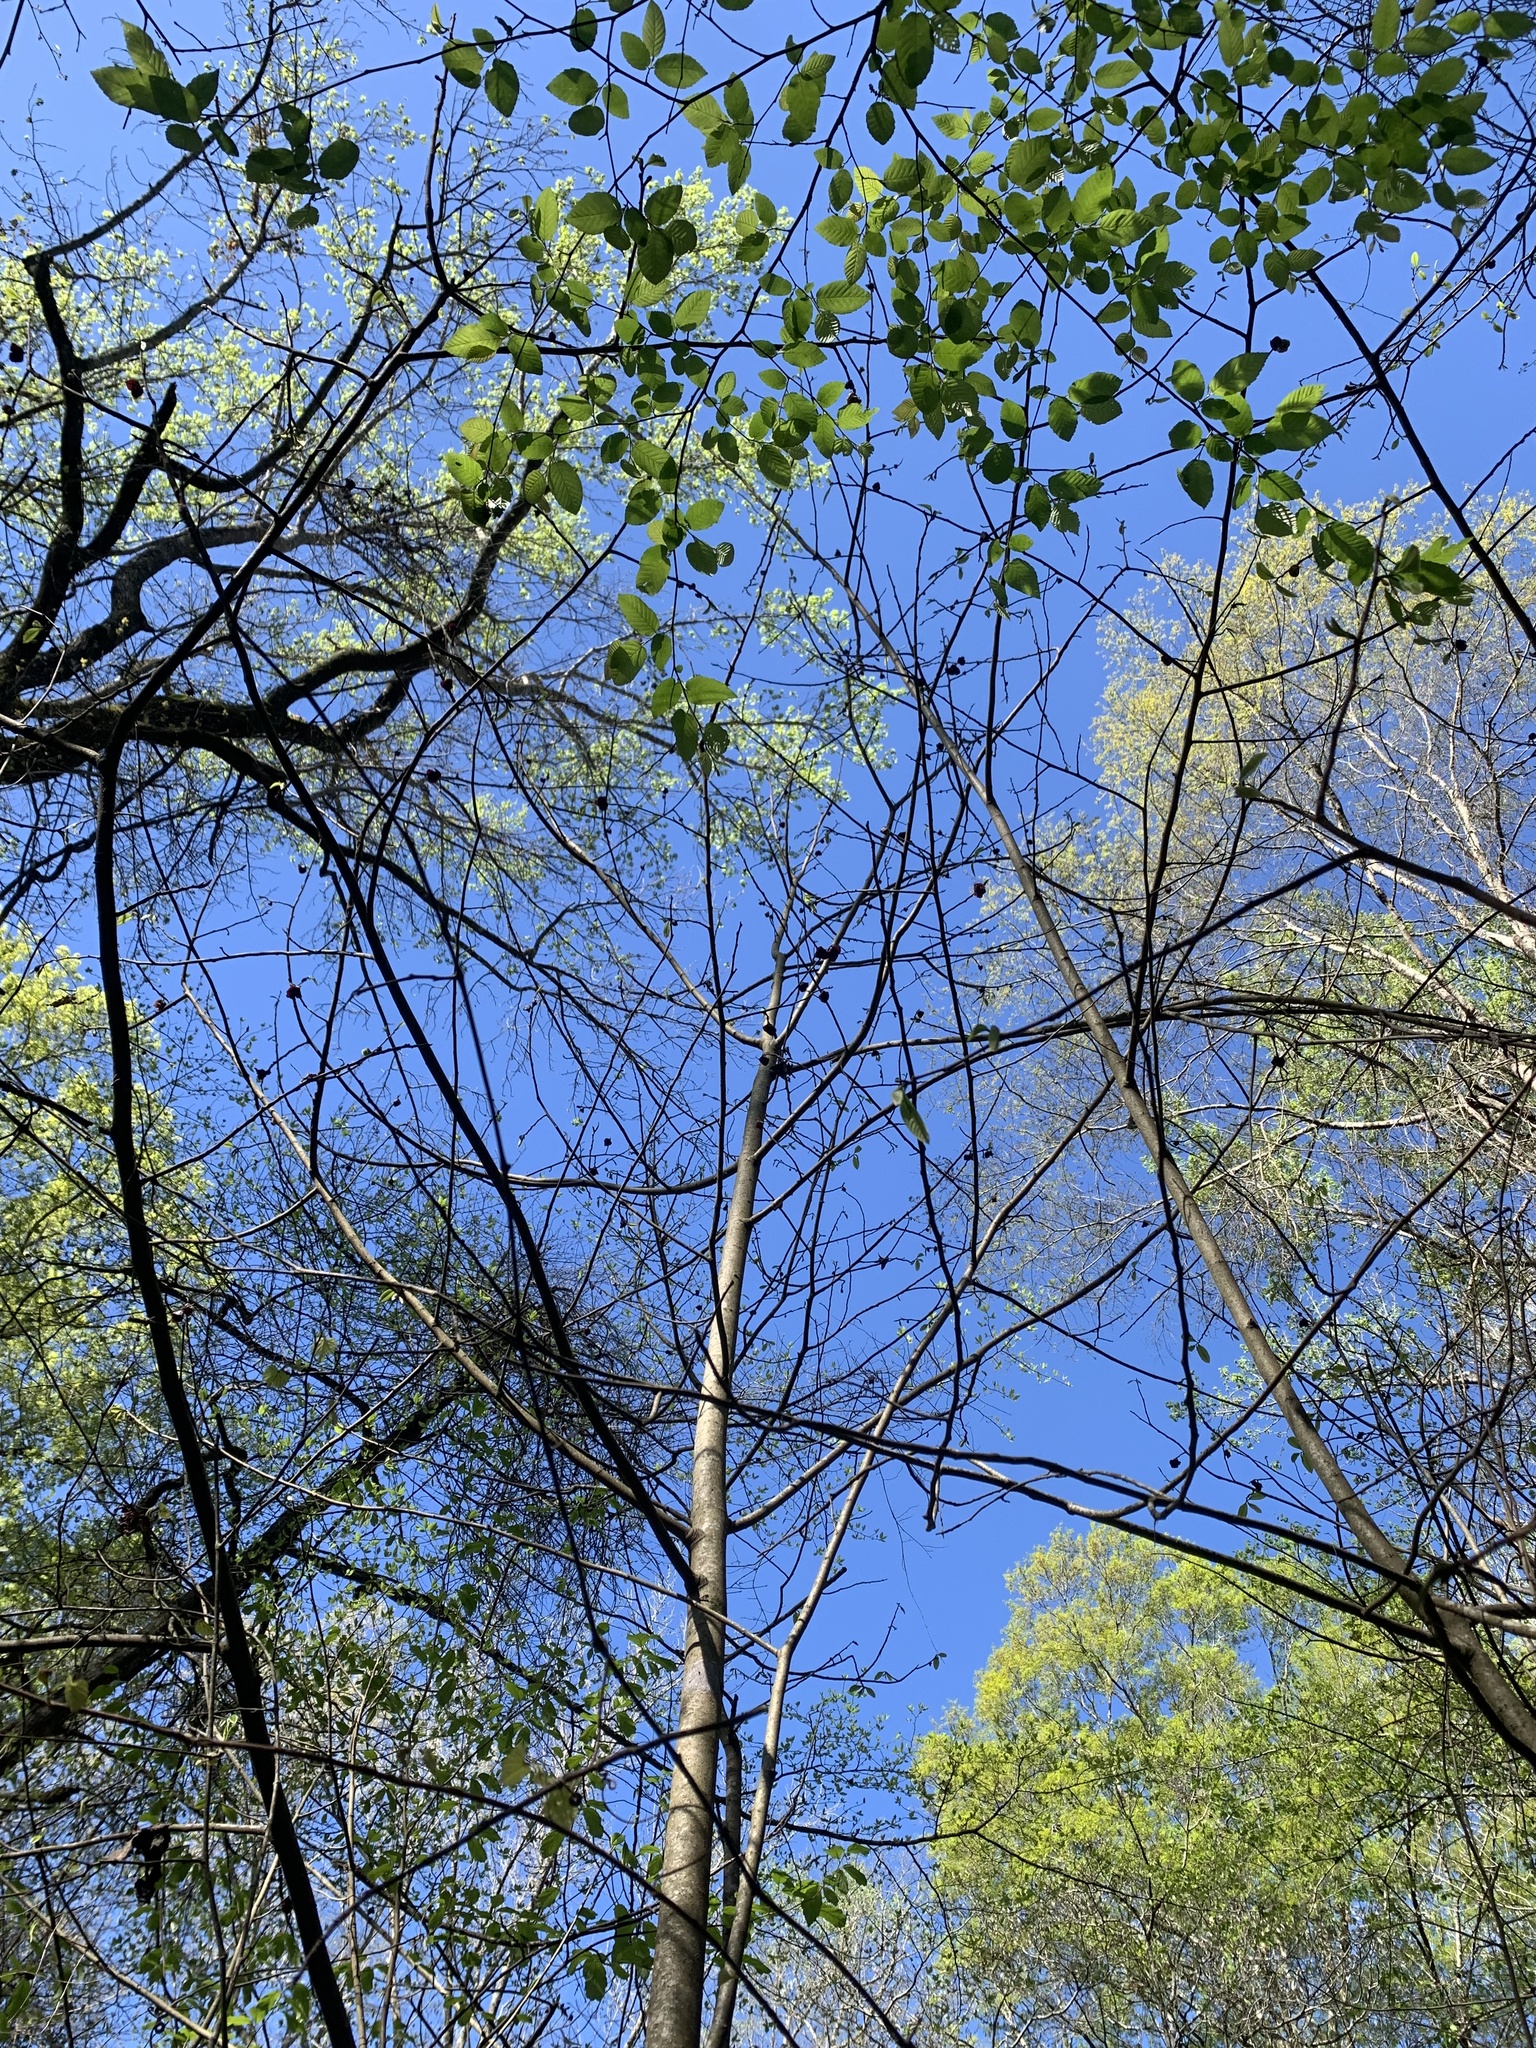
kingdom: Plantae
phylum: Tracheophyta
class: Magnoliopsida
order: Magnoliales
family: Annonaceae
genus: Asimina
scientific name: Asimina triloba
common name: Dog-banana
